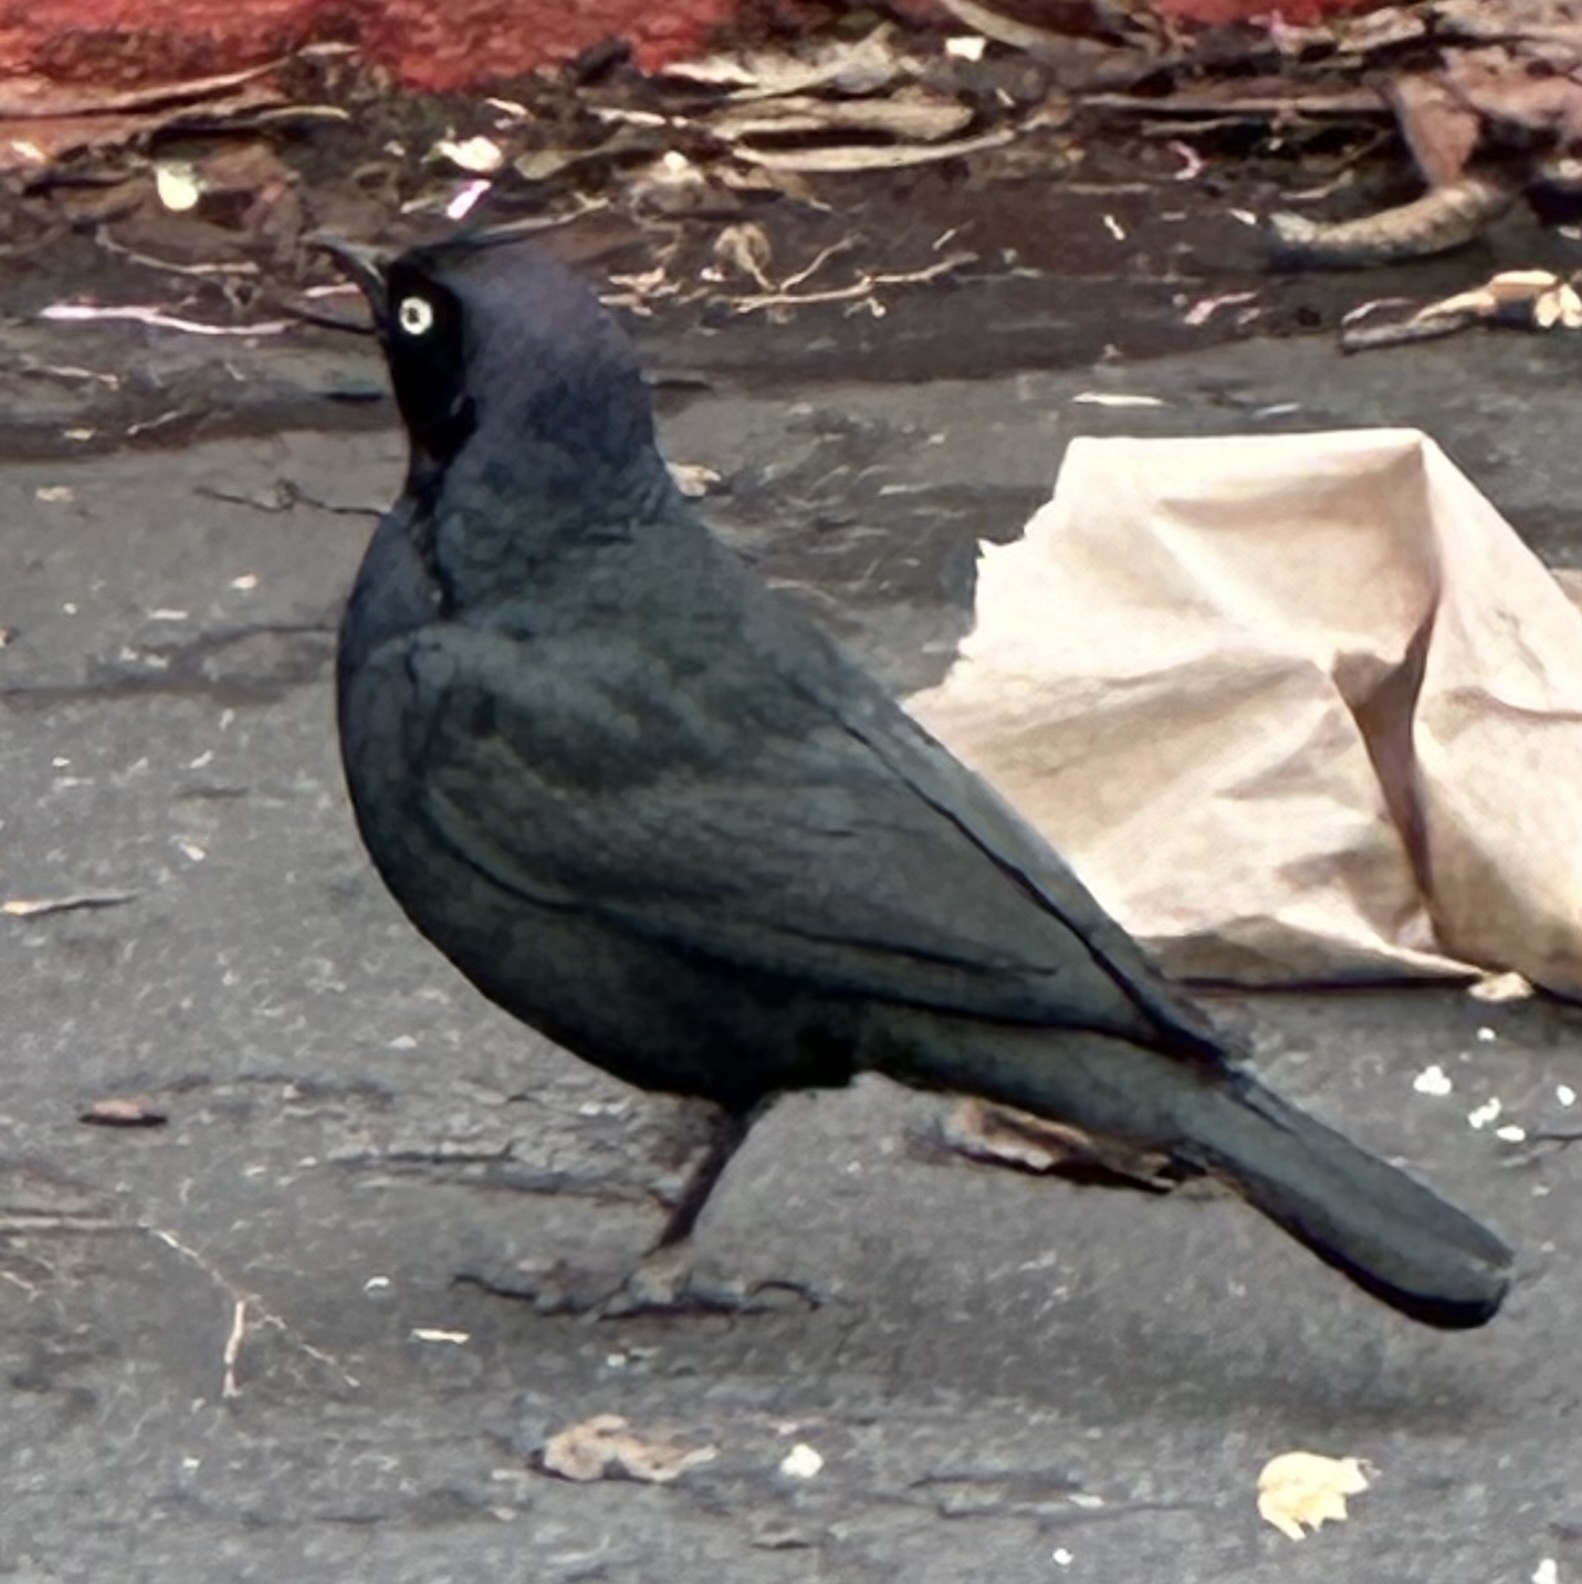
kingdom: Animalia
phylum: Chordata
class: Aves
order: Passeriformes
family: Icteridae
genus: Euphagus
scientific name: Euphagus cyanocephalus
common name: Brewer's blackbird
